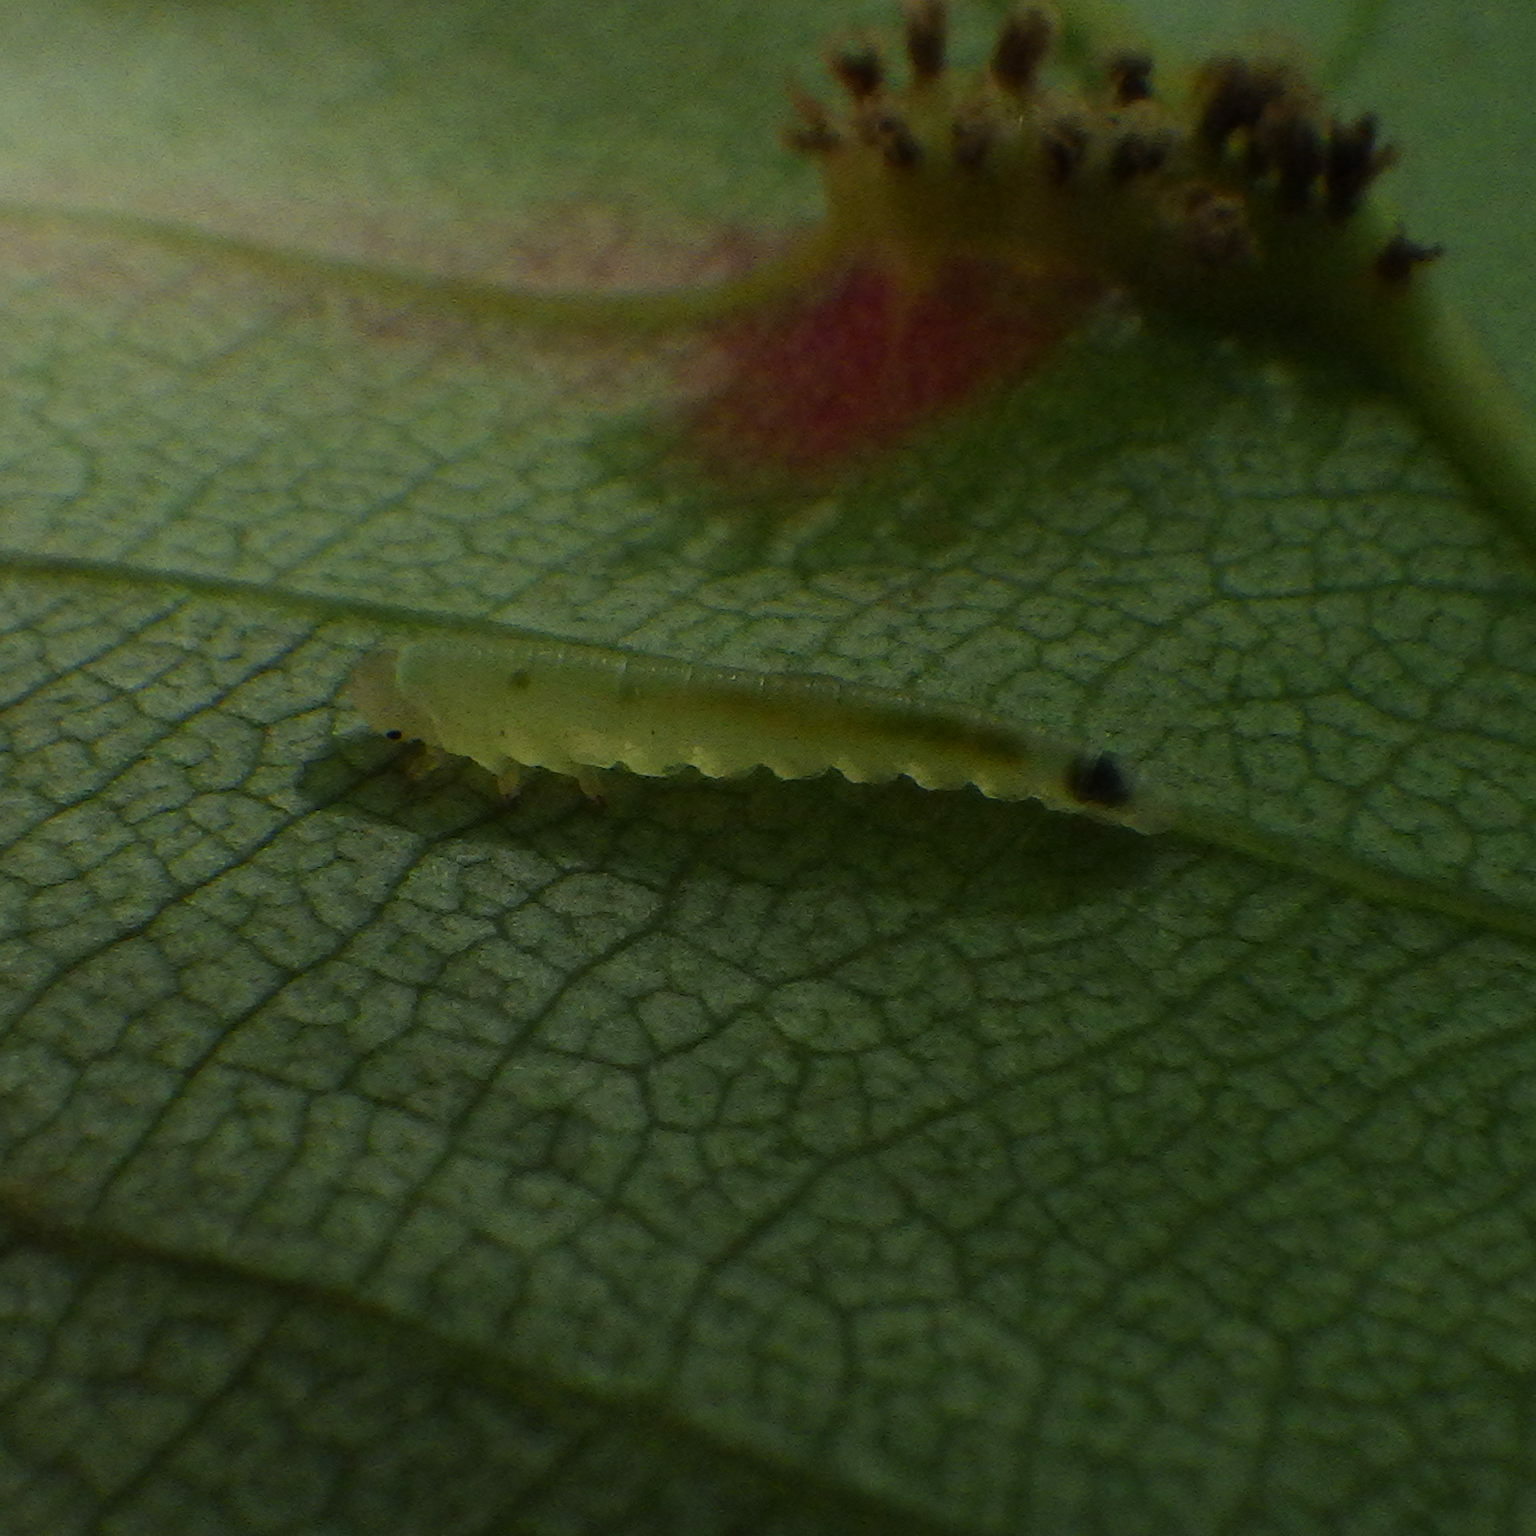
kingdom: Animalia
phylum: Arthropoda
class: Insecta
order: Hymenoptera
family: Tenthredinidae
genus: Dineura
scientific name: Dineura militaris
